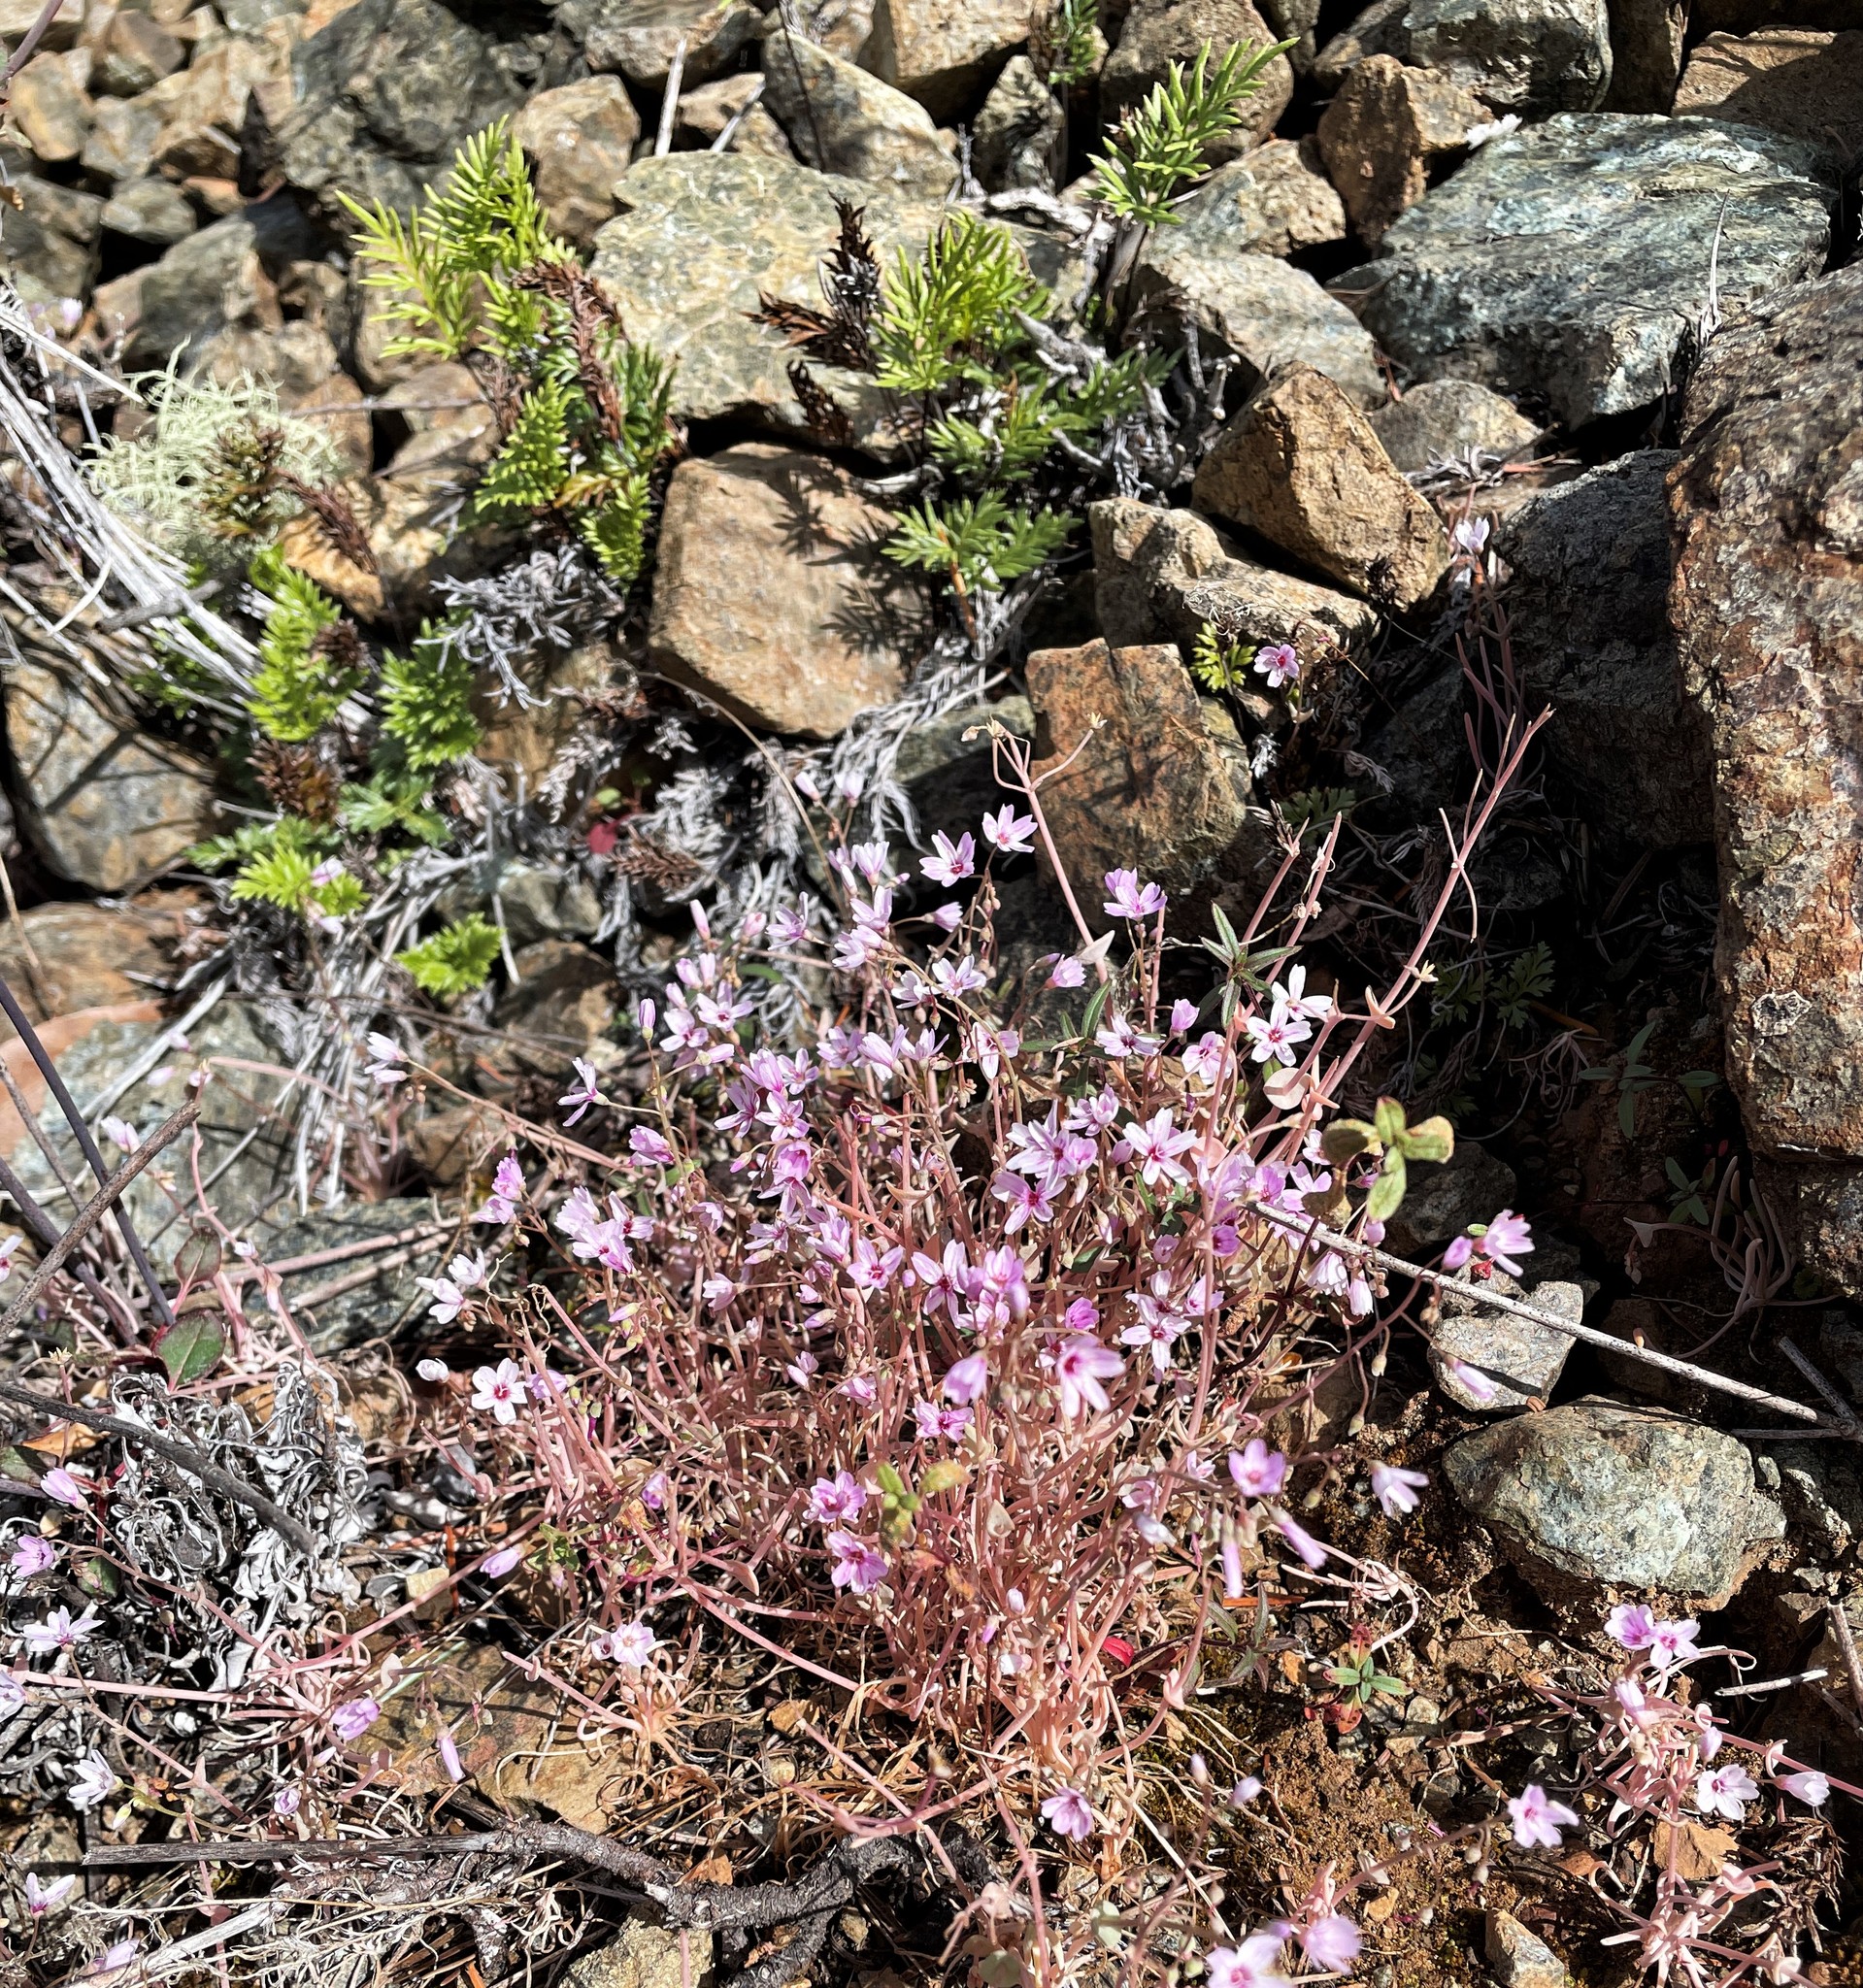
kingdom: Plantae
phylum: Tracheophyta
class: Magnoliopsida
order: Caryophyllales
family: Montiaceae
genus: Claytonia
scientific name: Claytonia gypsophiloides
